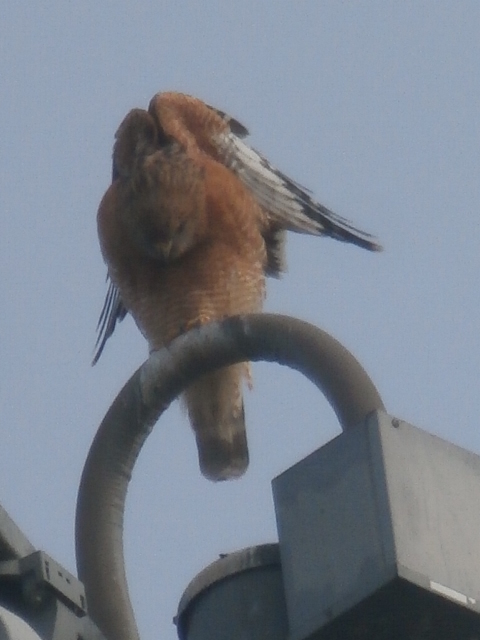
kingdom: Animalia
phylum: Chordata
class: Aves
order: Accipitriformes
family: Accipitridae
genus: Buteo
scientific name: Buteo lineatus
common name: Red-shouldered hawk
